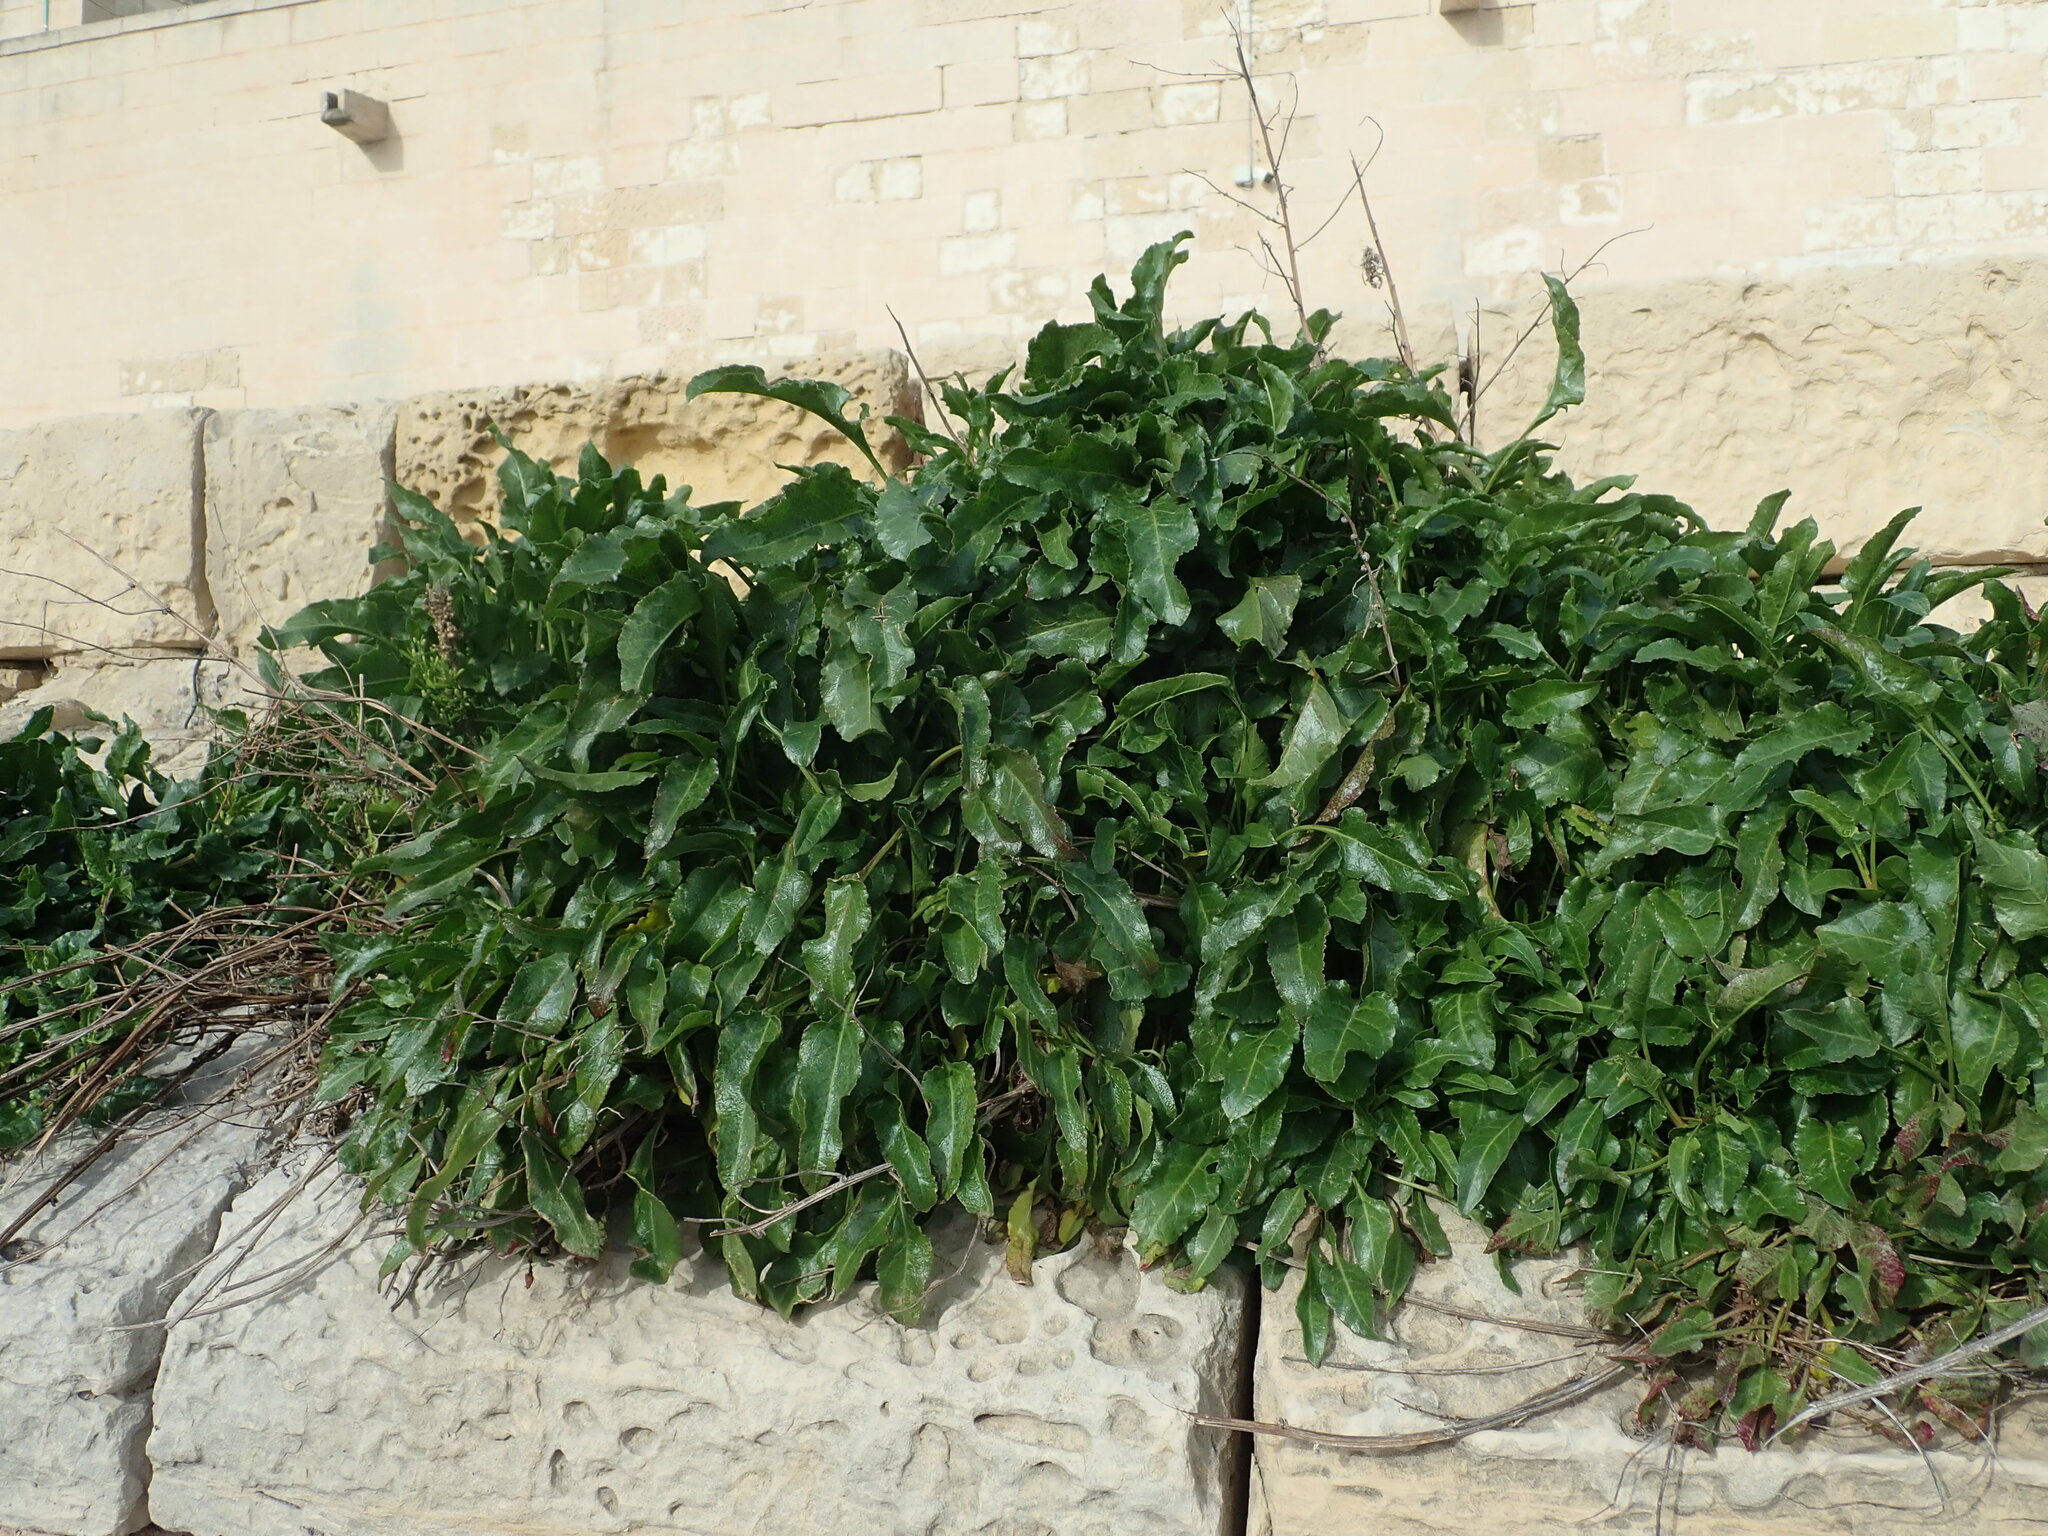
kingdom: Plantae
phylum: Tracheophyta
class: Magnoliopsida
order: Caryophyllales
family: Amaranthaceae
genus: Beta
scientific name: Beta vulgaris
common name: Beet
